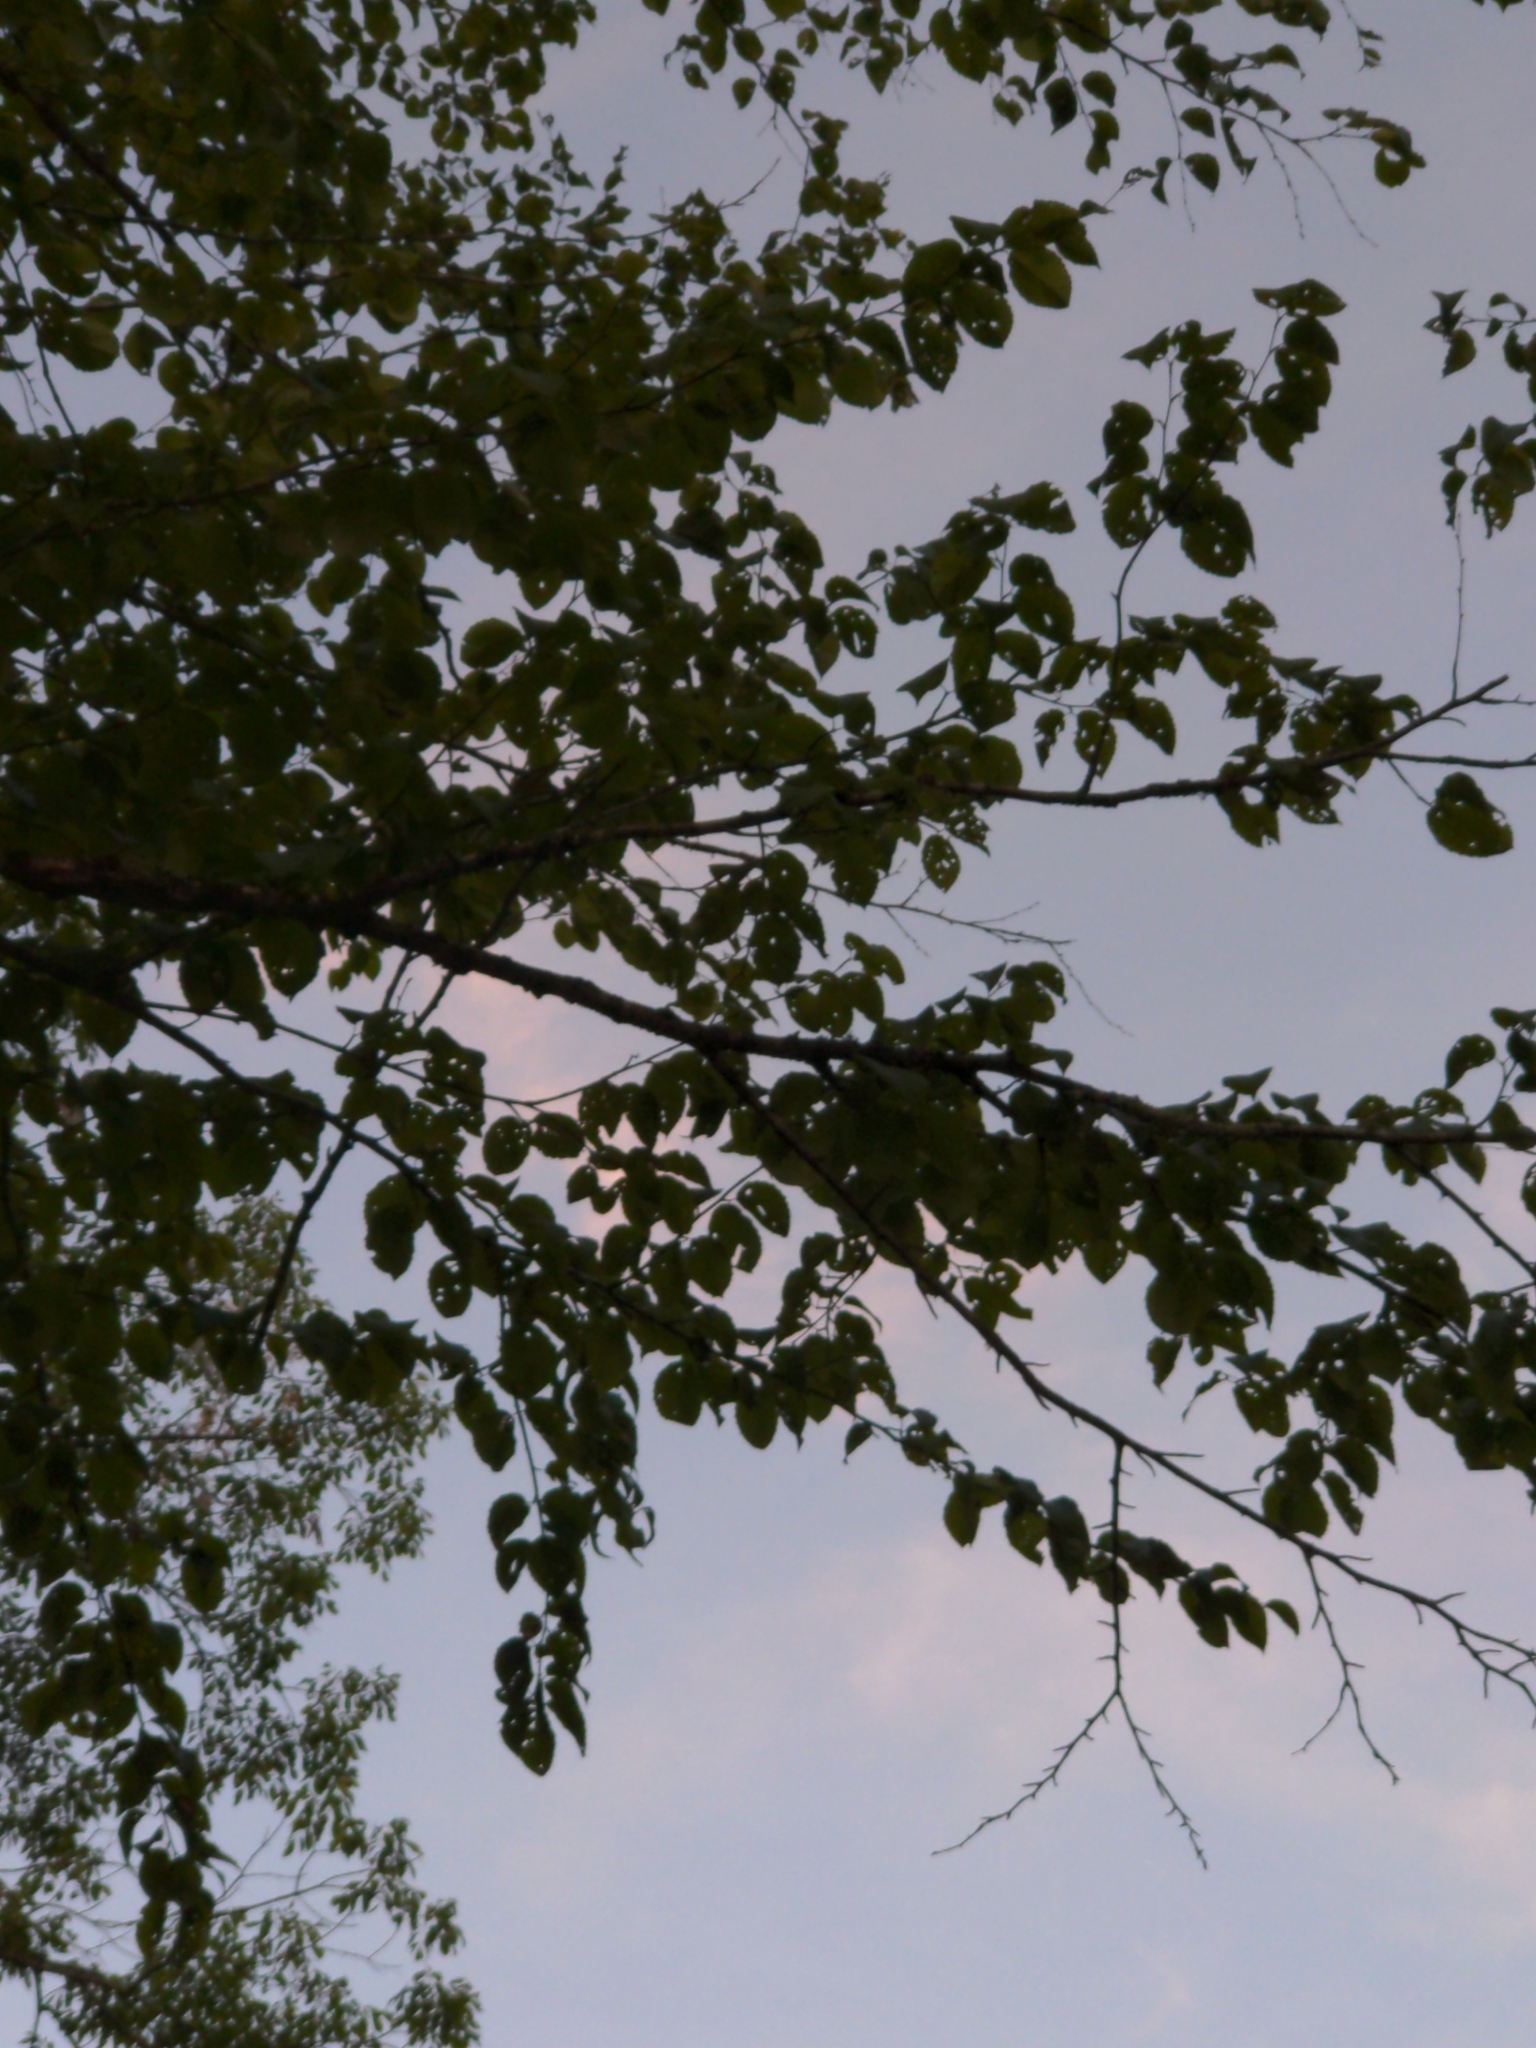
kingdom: Plantae
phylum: Tracheophyta
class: Magnoliopsida
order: Fagales
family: Betulaceae
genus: Betula
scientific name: Betula alleghaniensis
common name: Yellow birch
